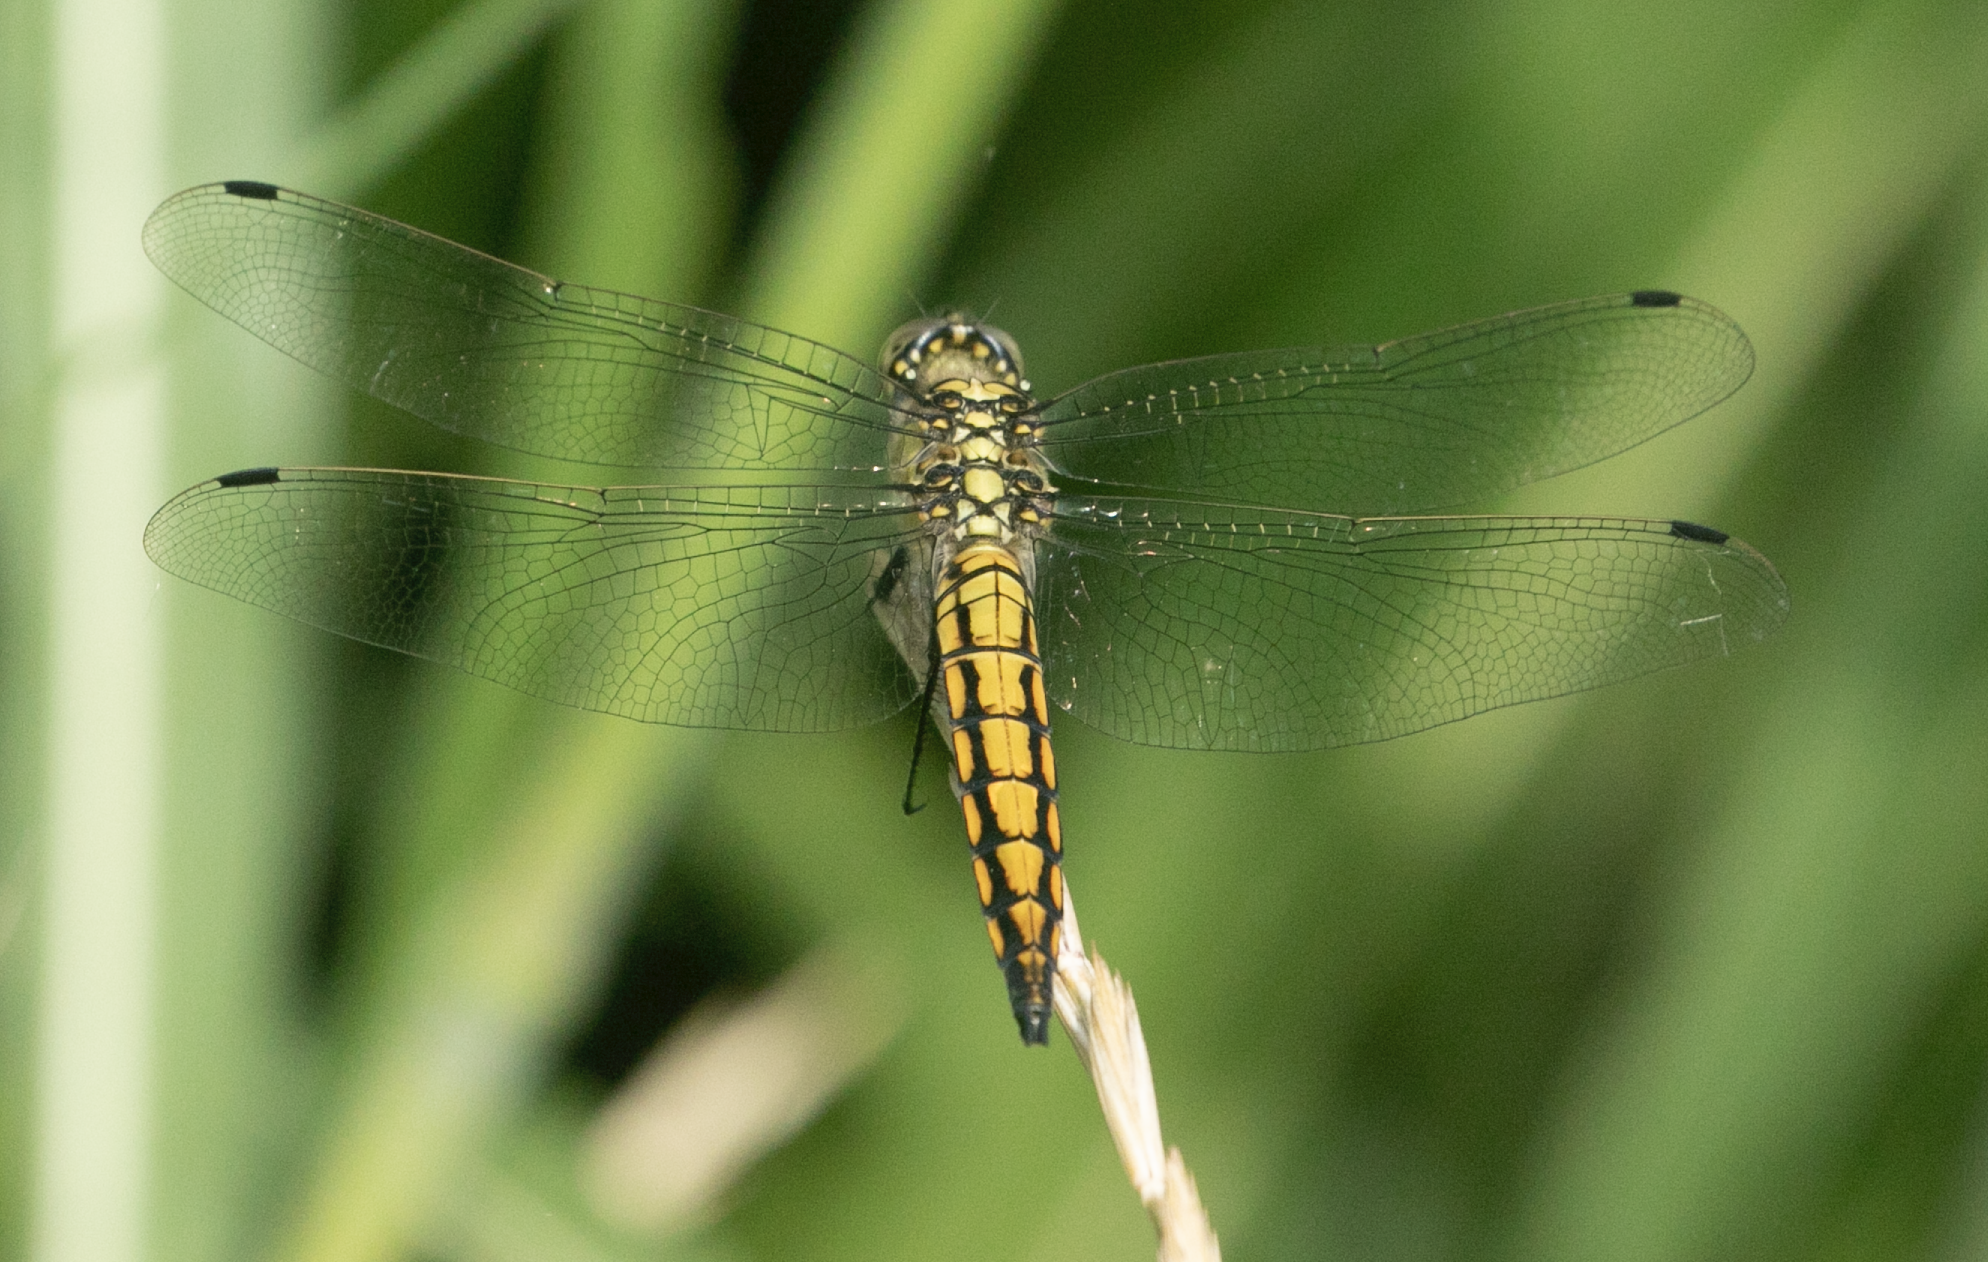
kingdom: Animalia
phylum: Arthropoda
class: Insecta
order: Odonata
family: Libellulidae
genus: Orthetrum
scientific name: Orthetrum cancellatum
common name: Black-tailed skimmer
